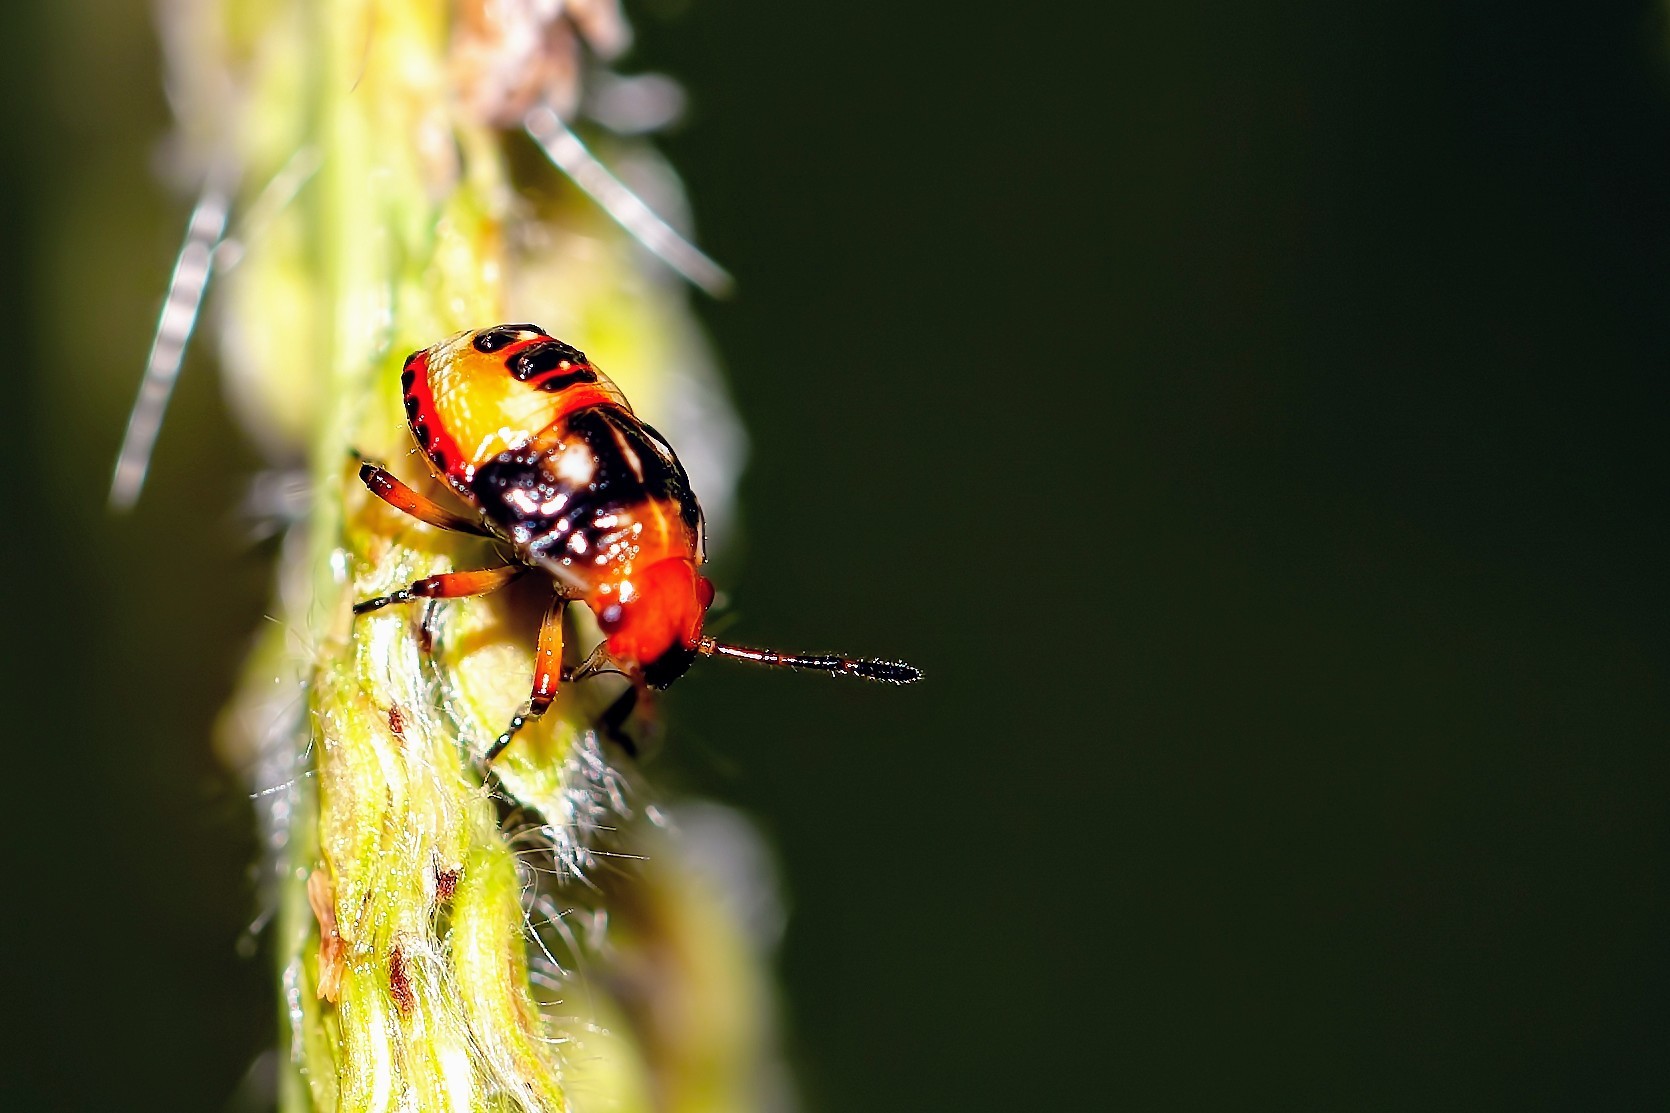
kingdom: Animalia
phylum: Arthropoda
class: Insecta
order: Hemiptera
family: Pentatomidae
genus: Mormidea
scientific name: Mormidea pama
